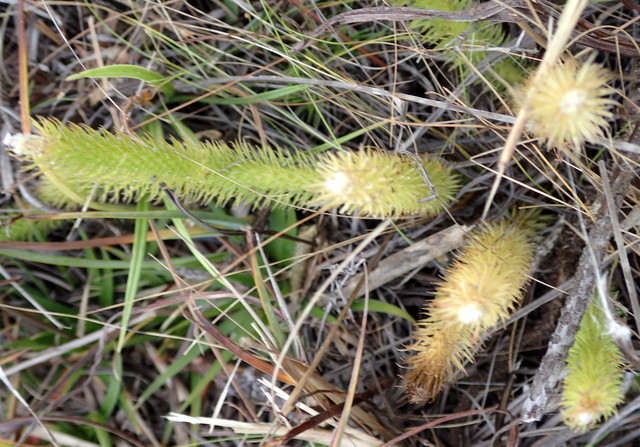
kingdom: Plantae
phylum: Tracheophyta
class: Lycopodiopsida
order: Lycopodiales
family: Lycopodiaceae
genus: Lycopodiella
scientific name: Lycopodiella alopecuroides
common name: Foxtail clubmoss
